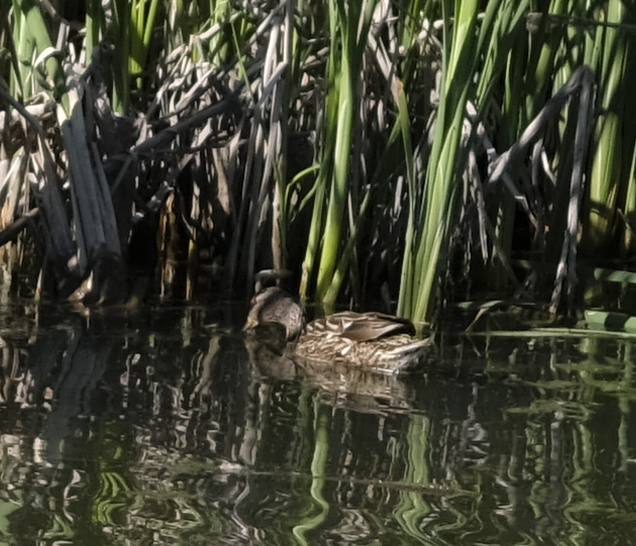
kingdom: Animalia
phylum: Chordata
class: Aves
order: Anseriformes
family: Anatidae
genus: Anas
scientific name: Anas platyrhynchos
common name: Mallard
